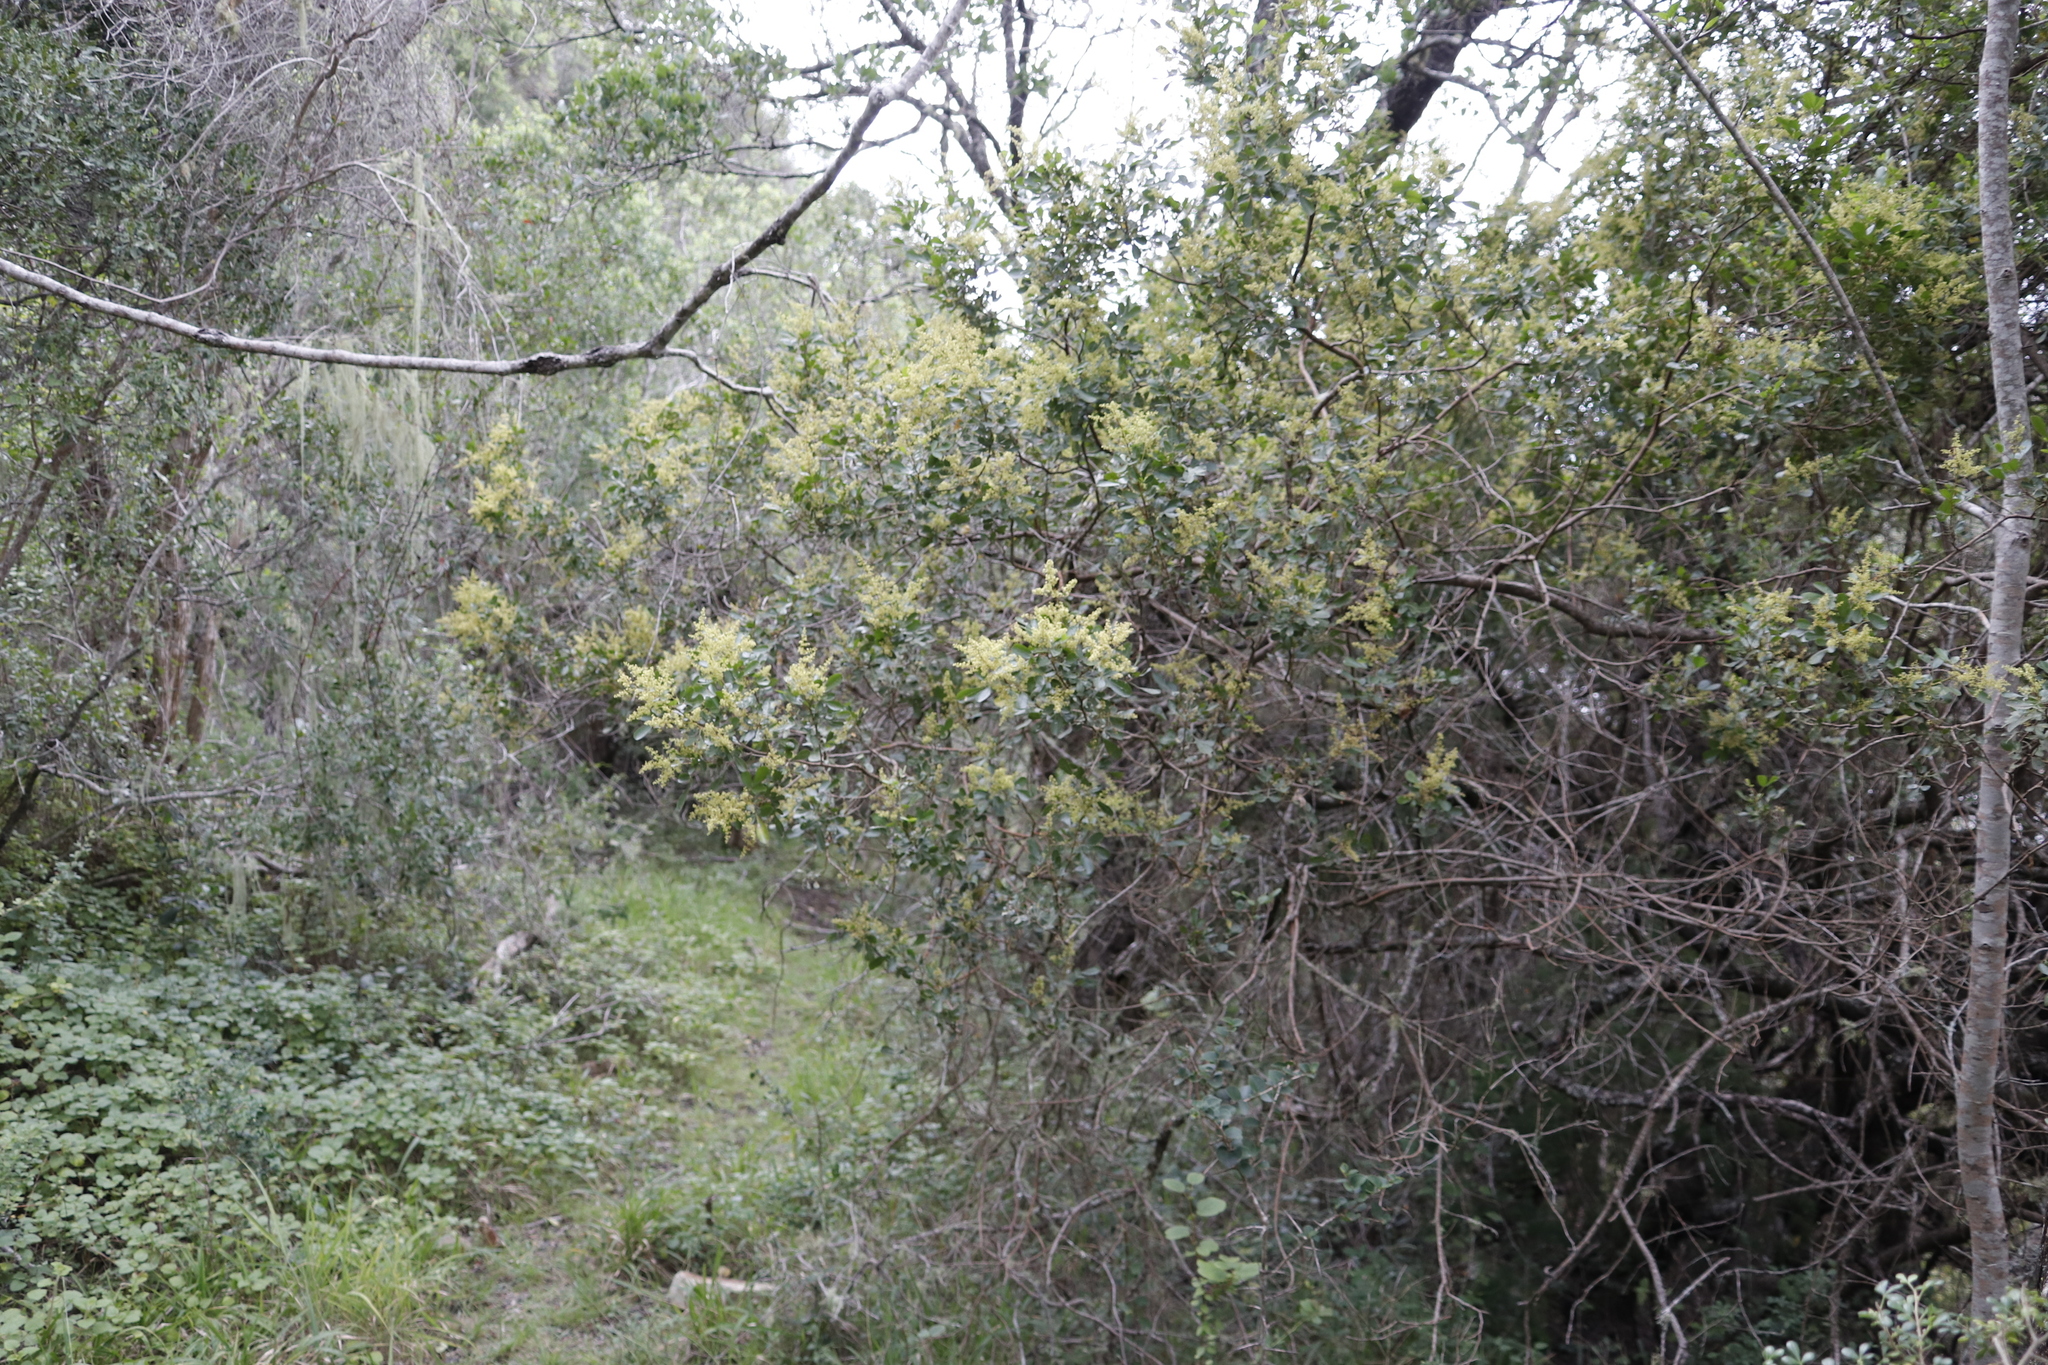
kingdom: Plantae
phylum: Tracheophyta
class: Magnoliopsida
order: Sapindales
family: Anacardiaceae
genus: Searsia
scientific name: Searsia pallens
